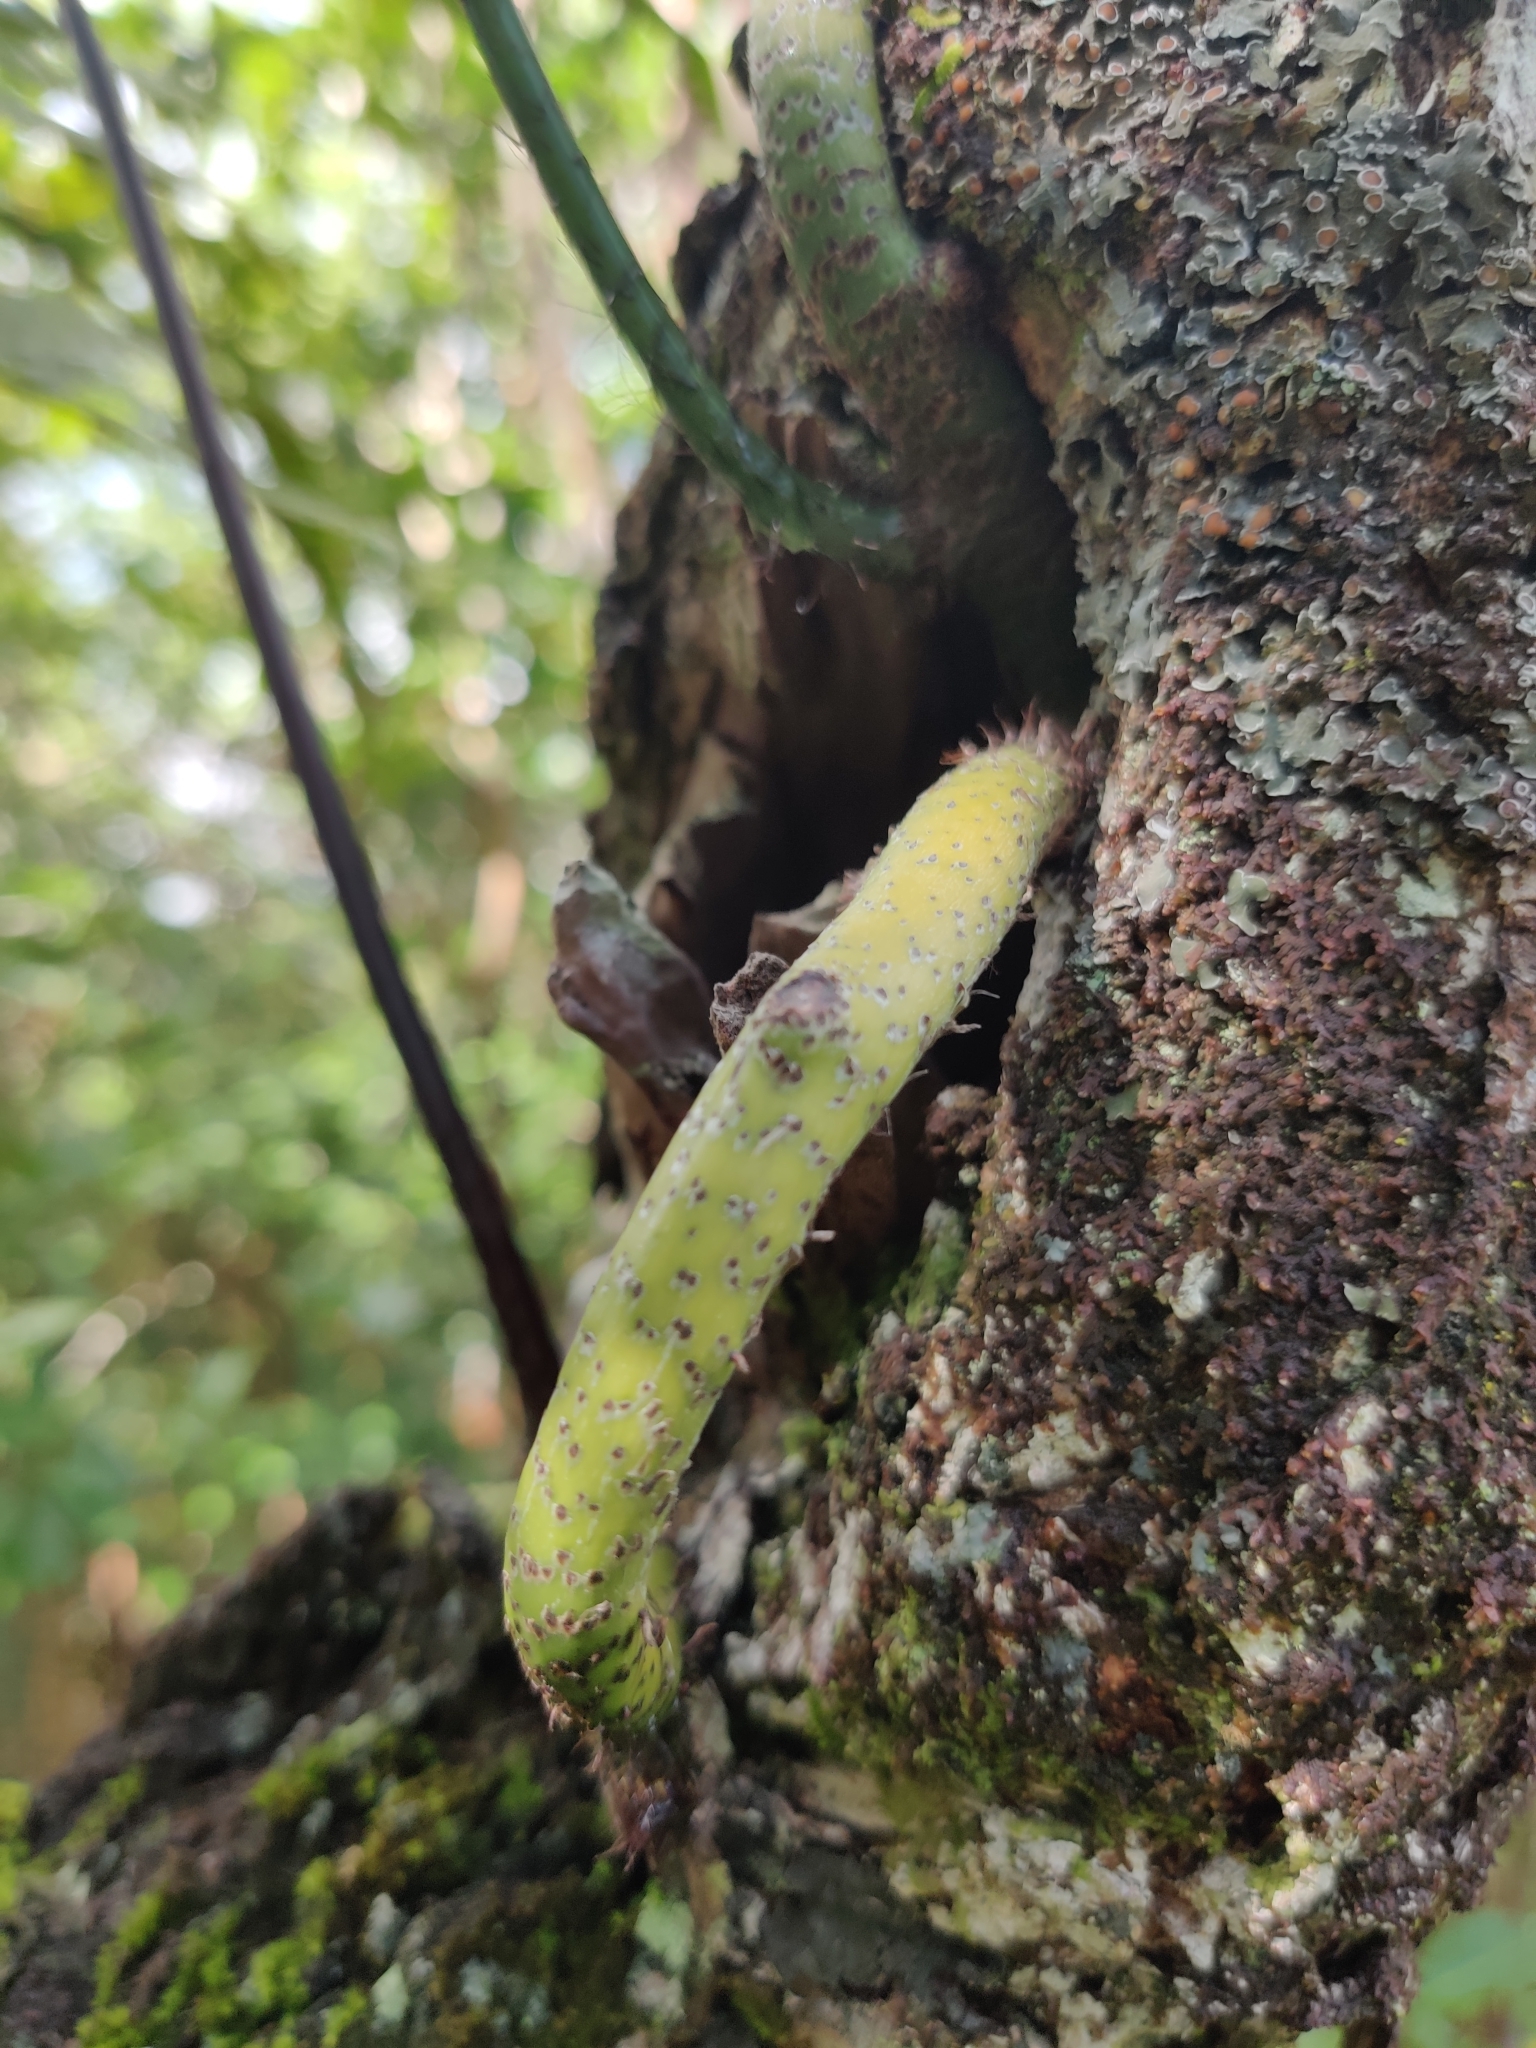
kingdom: Plantae
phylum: Tracheophyta
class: Polypodiopsida
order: Polypodiales
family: Polypodiaceae
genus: Microsorum
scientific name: Microsorum grossum
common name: Musk fern
